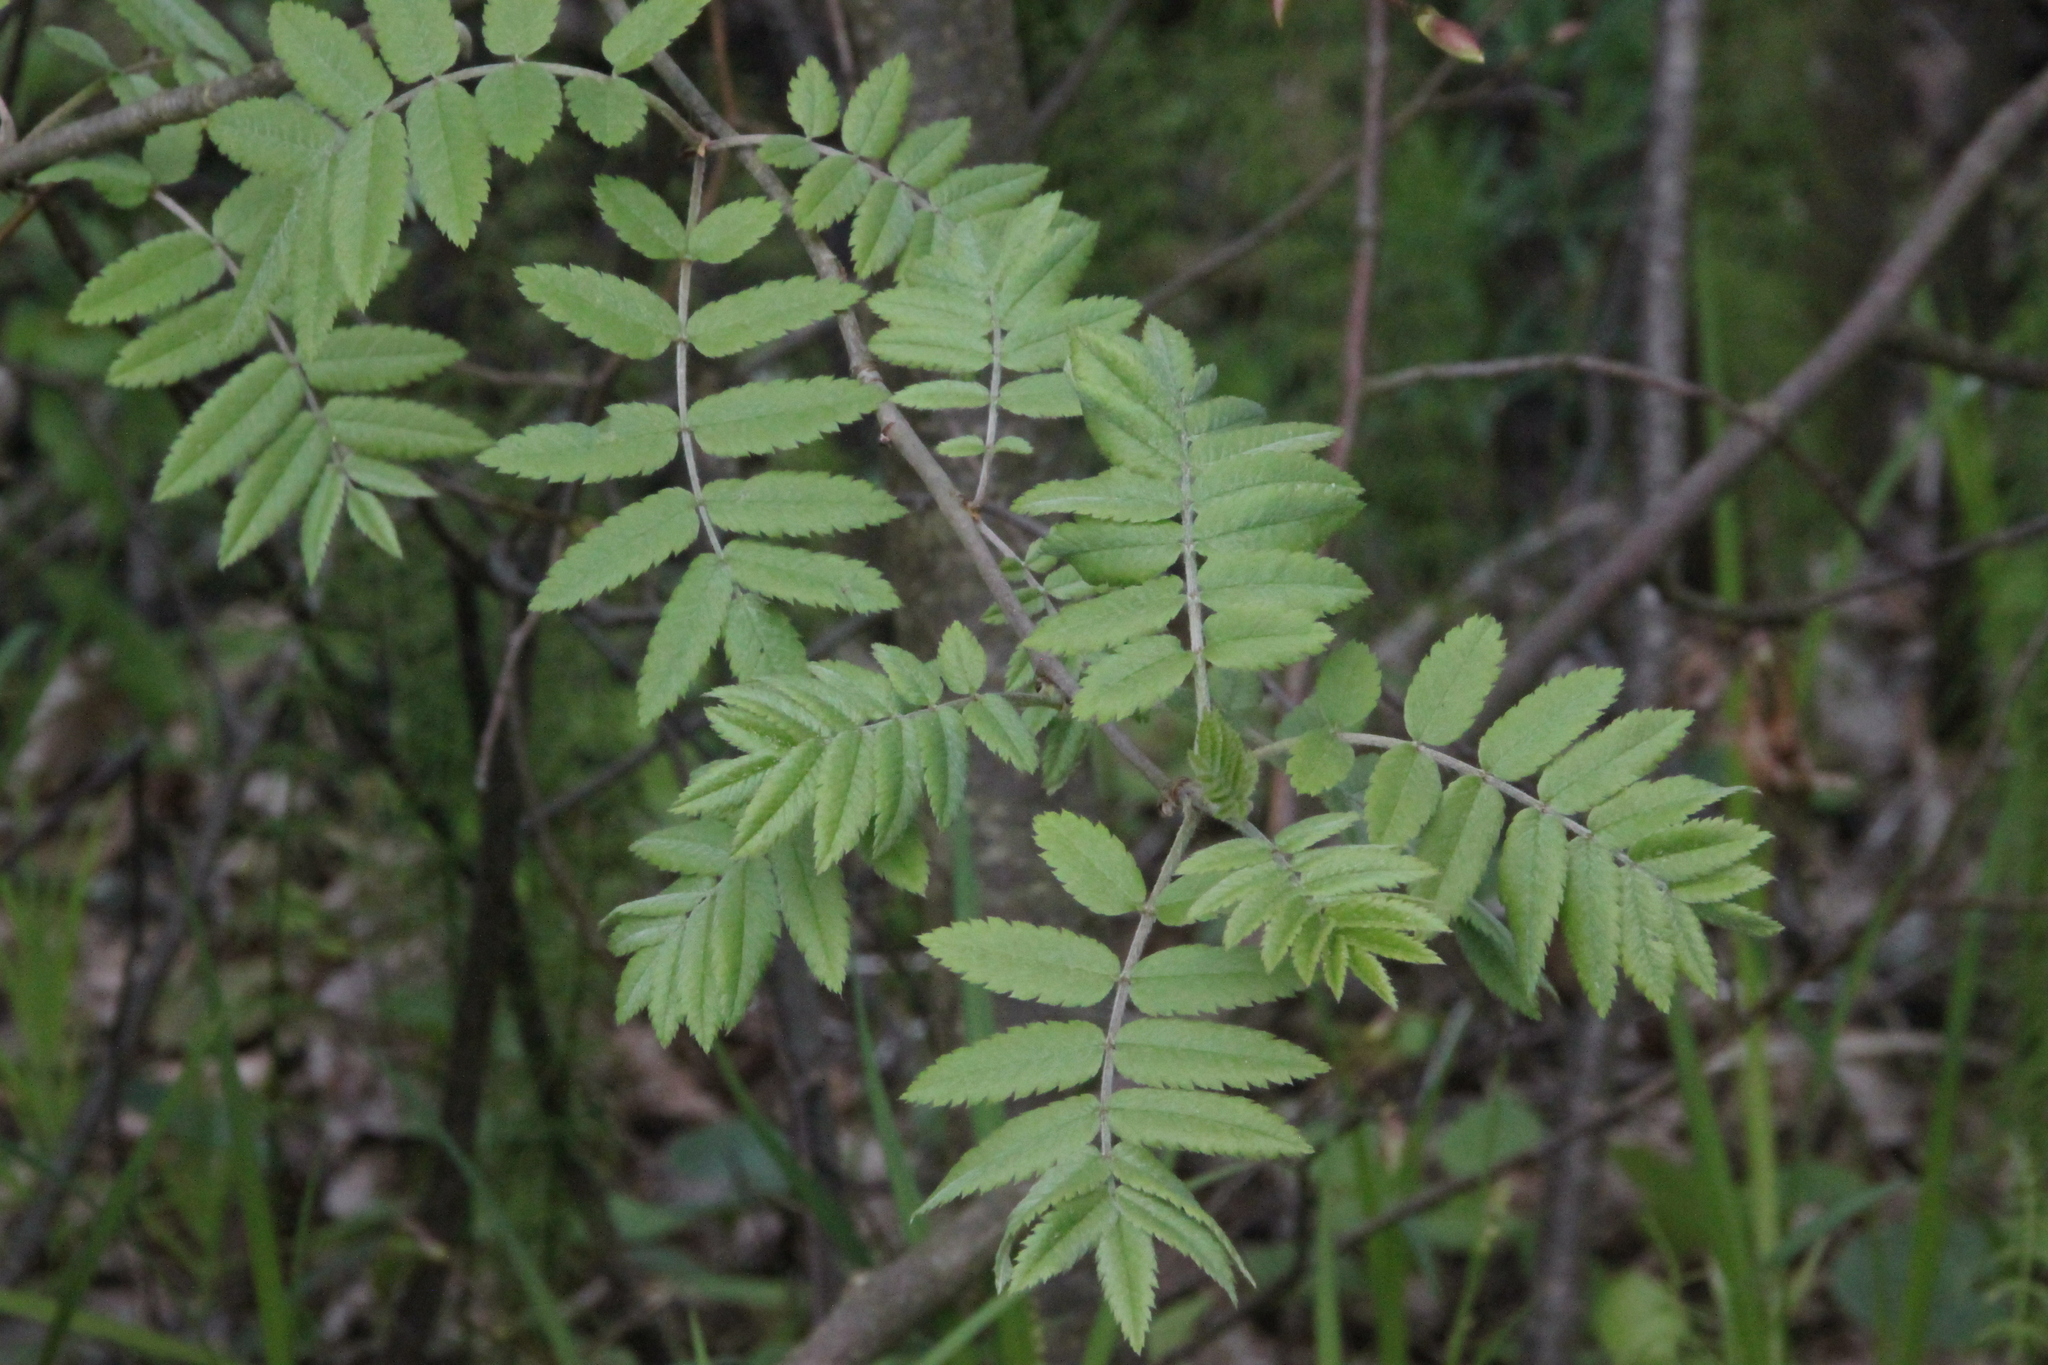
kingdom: Plantae
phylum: Tracheophyta
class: Magnoliopsida
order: Rosales
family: Rosaceae
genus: Sorbus
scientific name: Sorbus aucuparia
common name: Rowan
